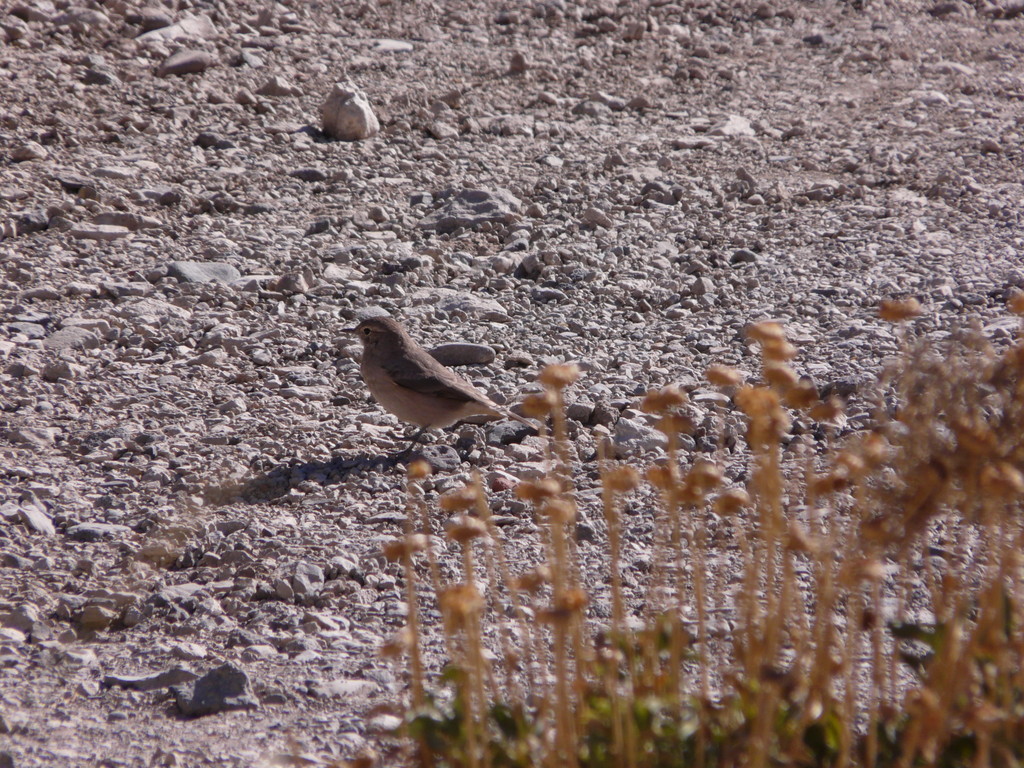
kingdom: Animalia
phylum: Chordata
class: Aves
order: Passeriformes
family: Furnariidae
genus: Geositta
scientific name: Geositta rufipennis
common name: Rufous-banded miner
